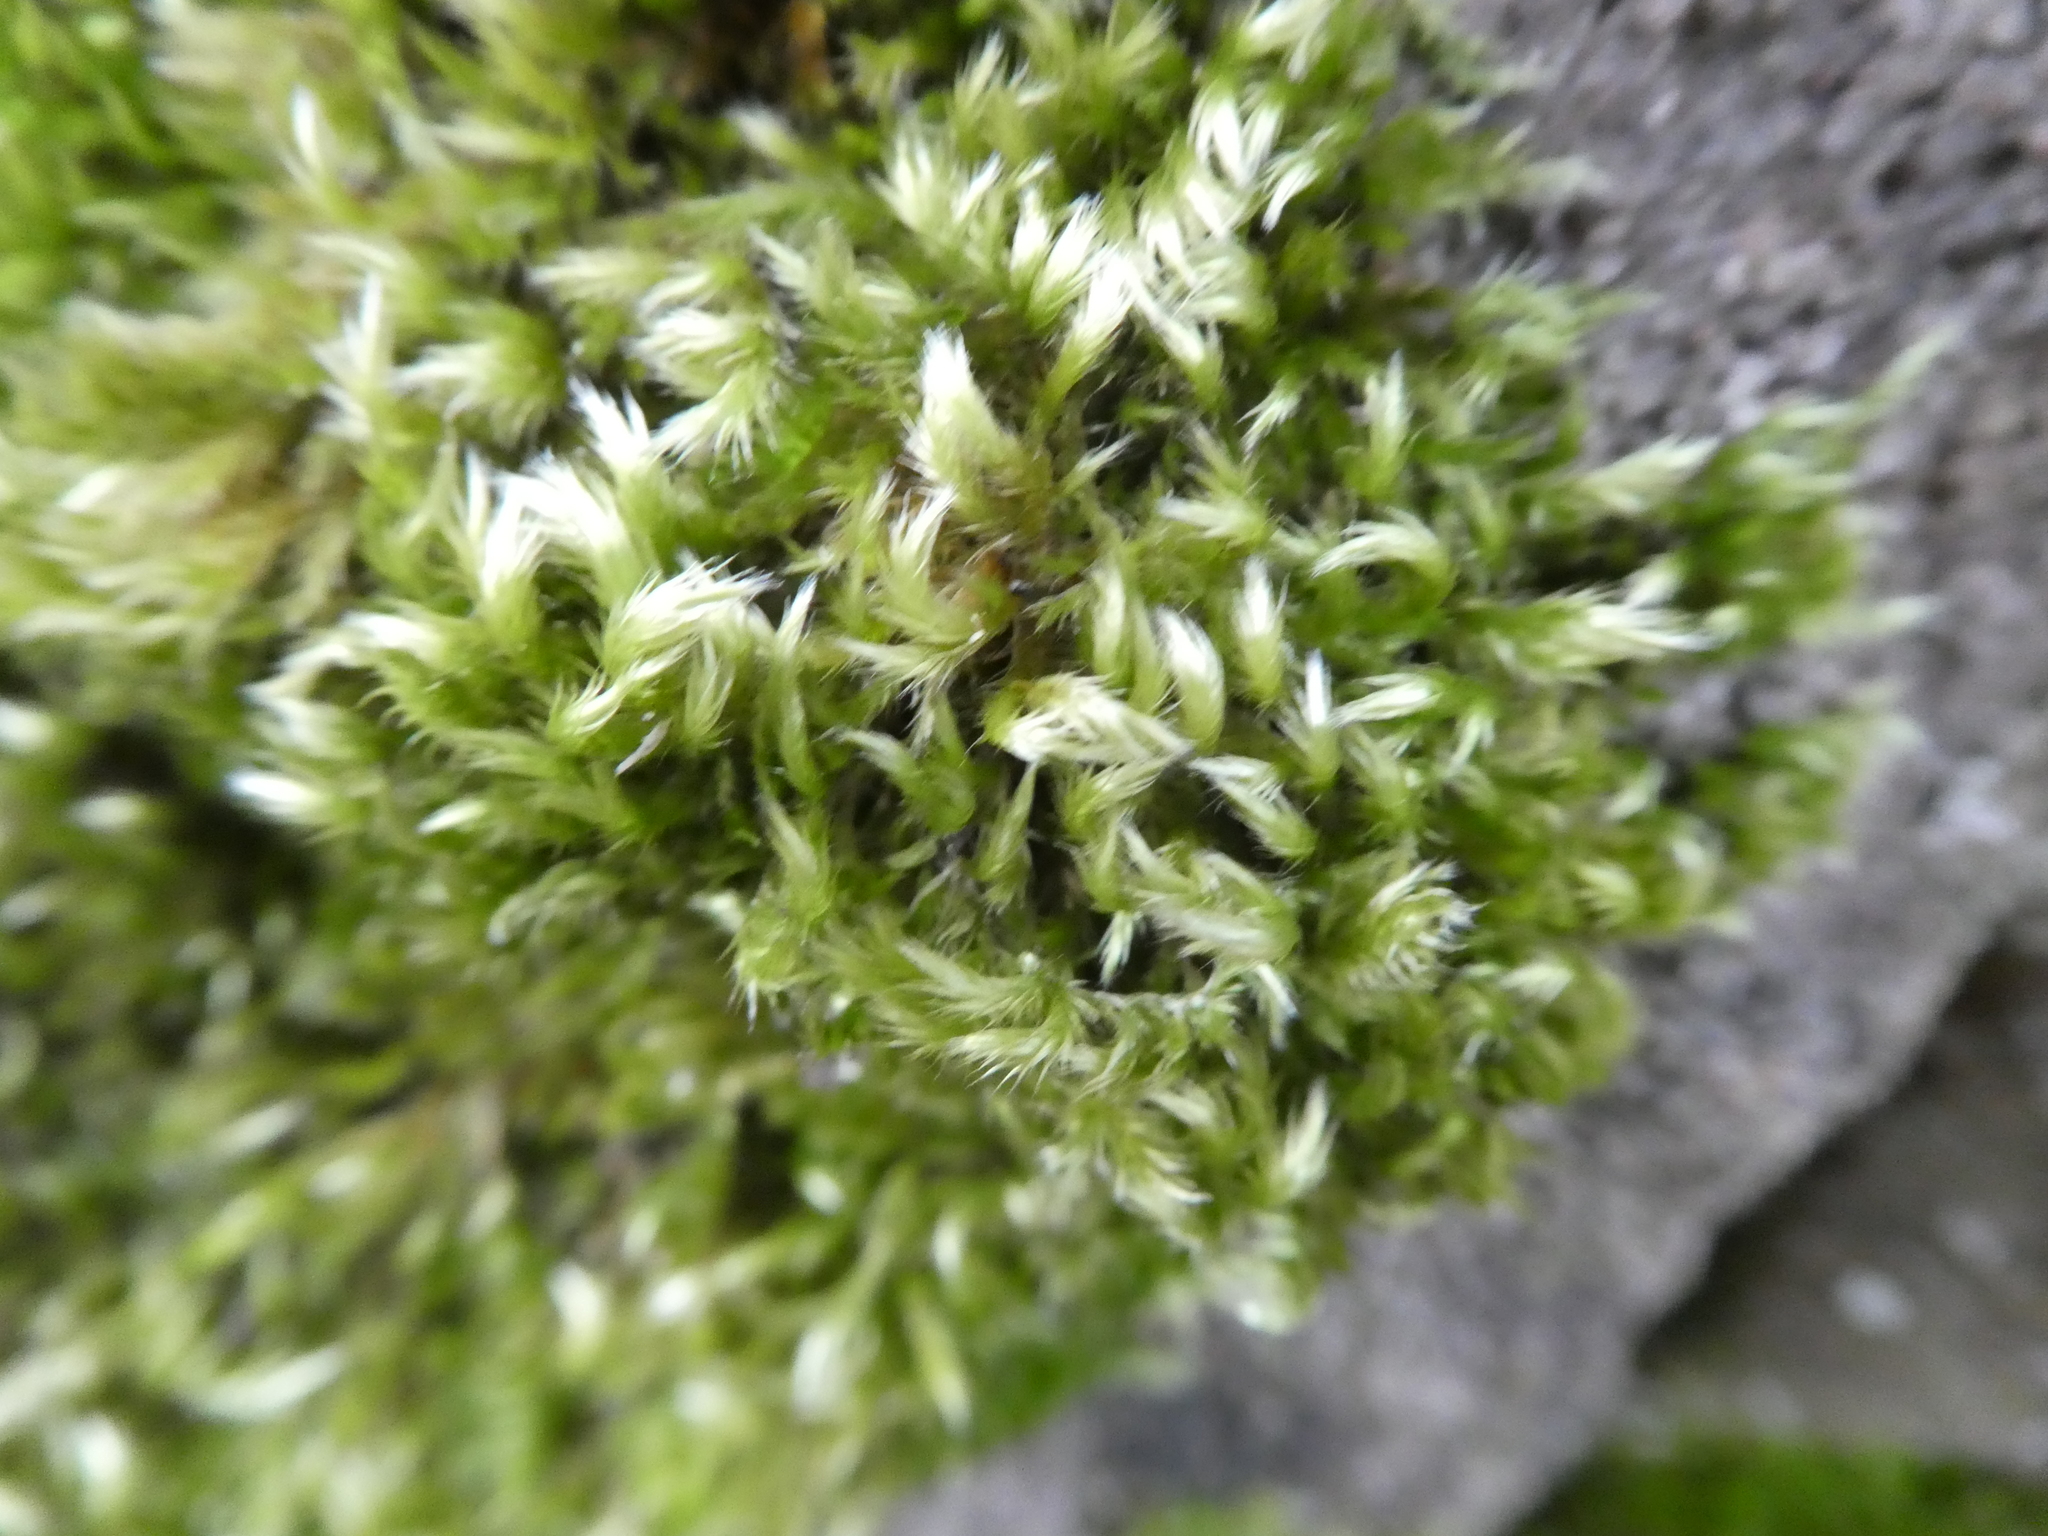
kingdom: Plantae
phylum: Bryophyta
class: Bryopsida
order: Hypnales
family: Brachytheciaceae
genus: Homalothecium
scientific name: Homalothecium sericeum
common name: Silky wall feather-moss
